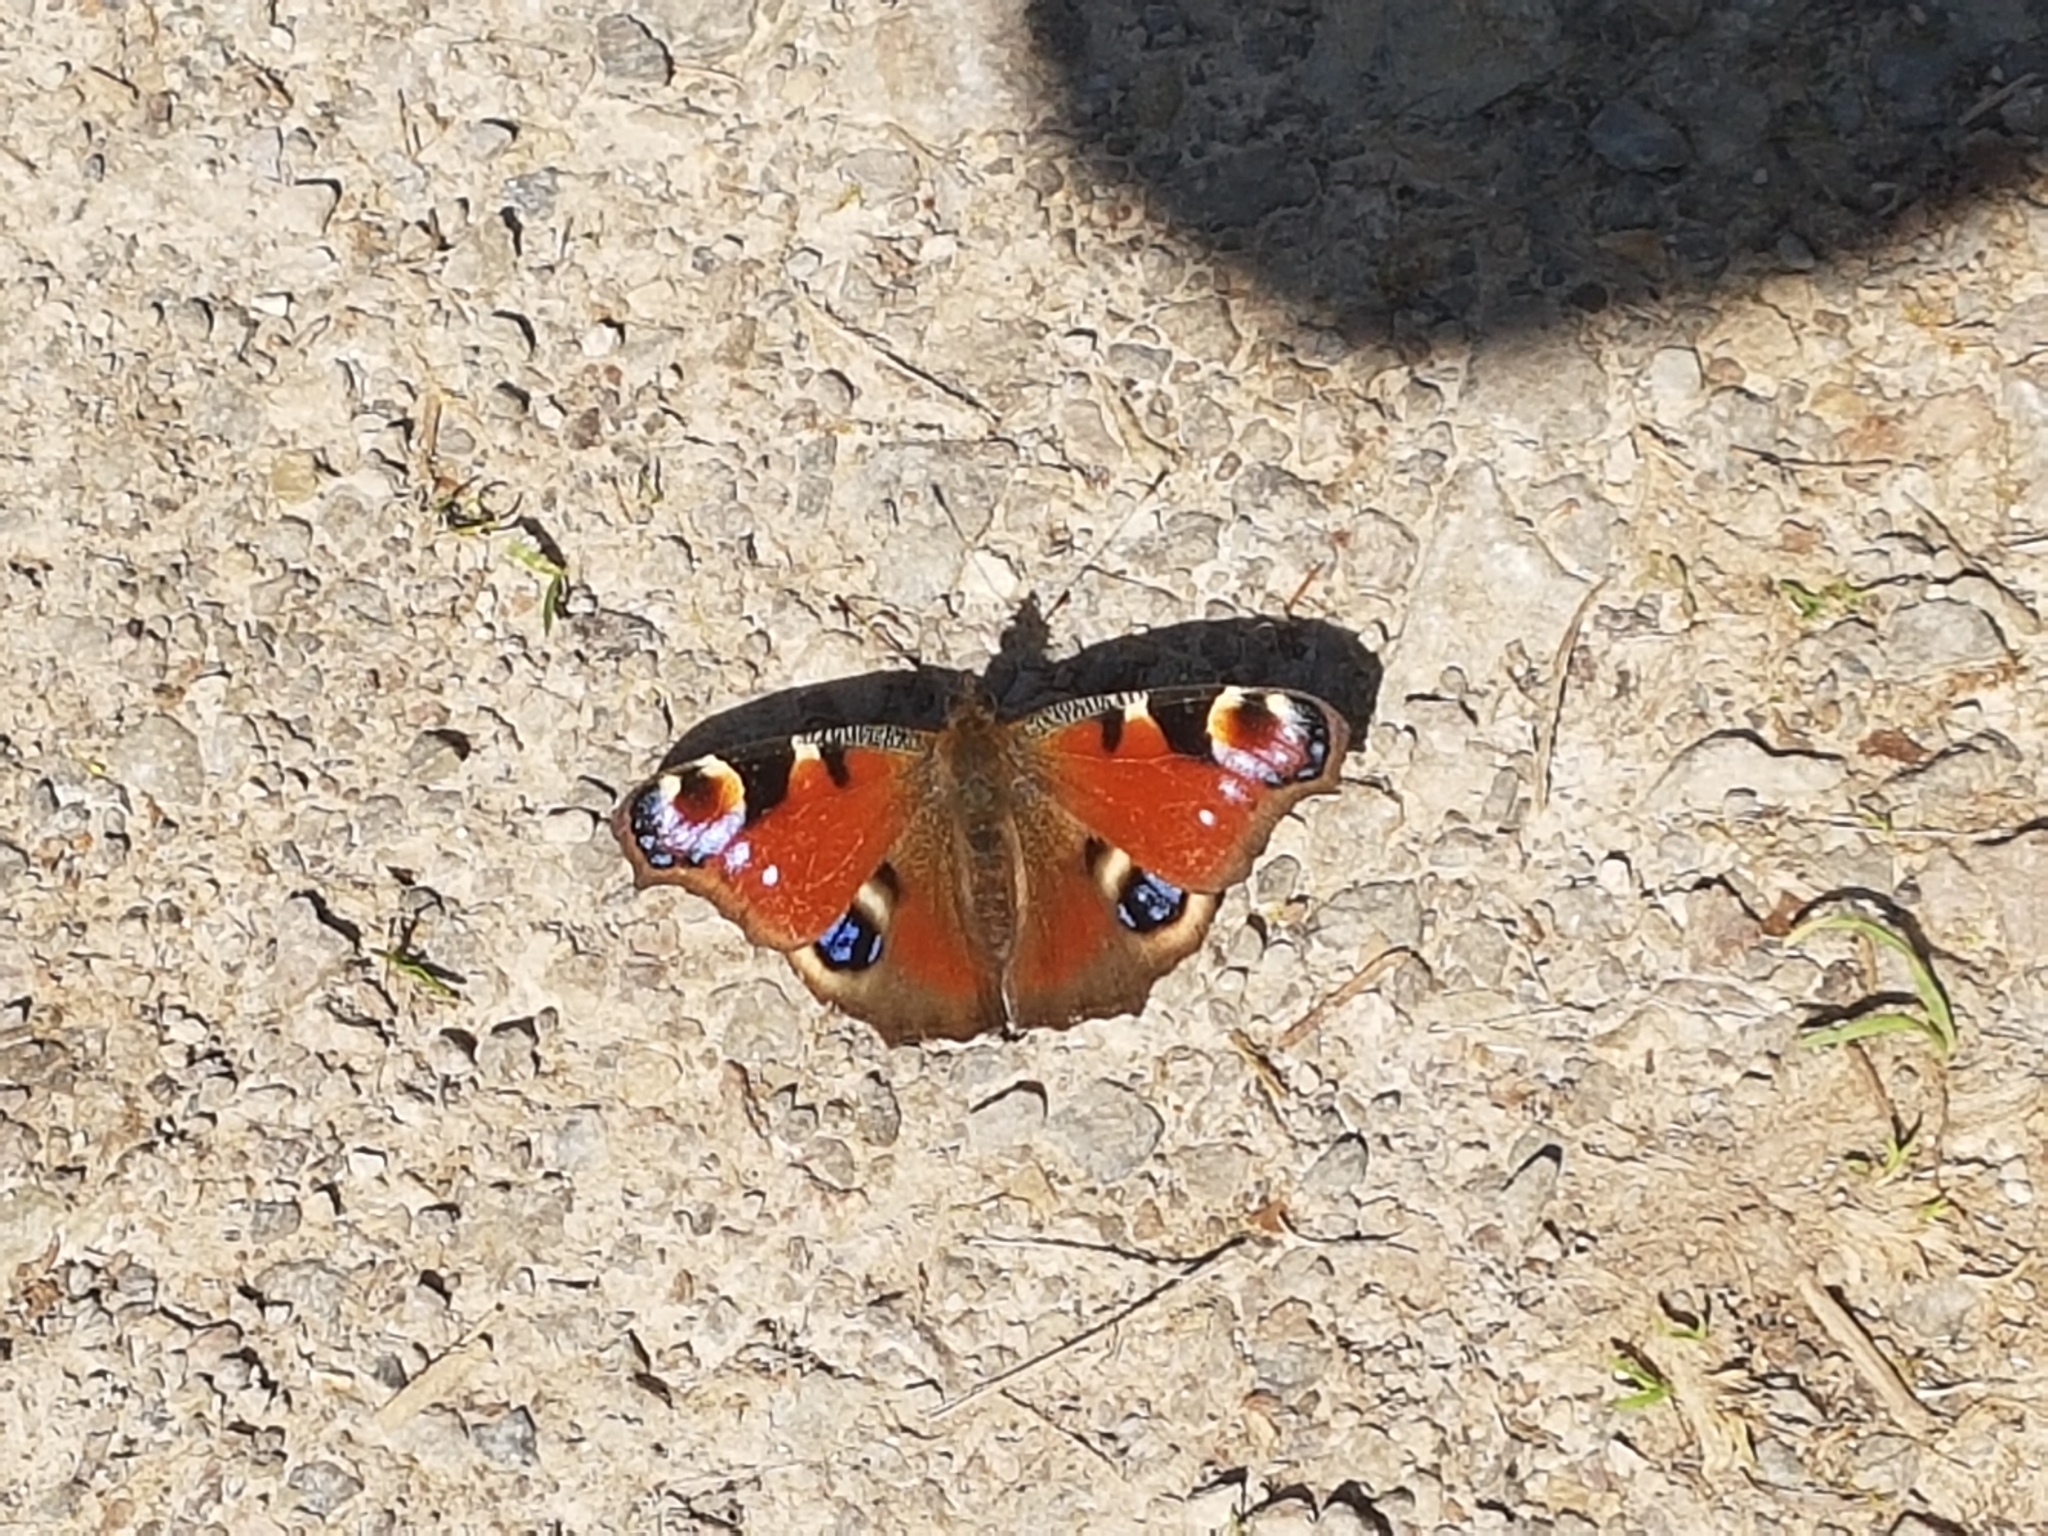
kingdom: Animalia
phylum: Arthropoda
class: Insecta
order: Lepidoptera
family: Nymphalidae
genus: Aglais
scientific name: Aglais io
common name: Peacock
